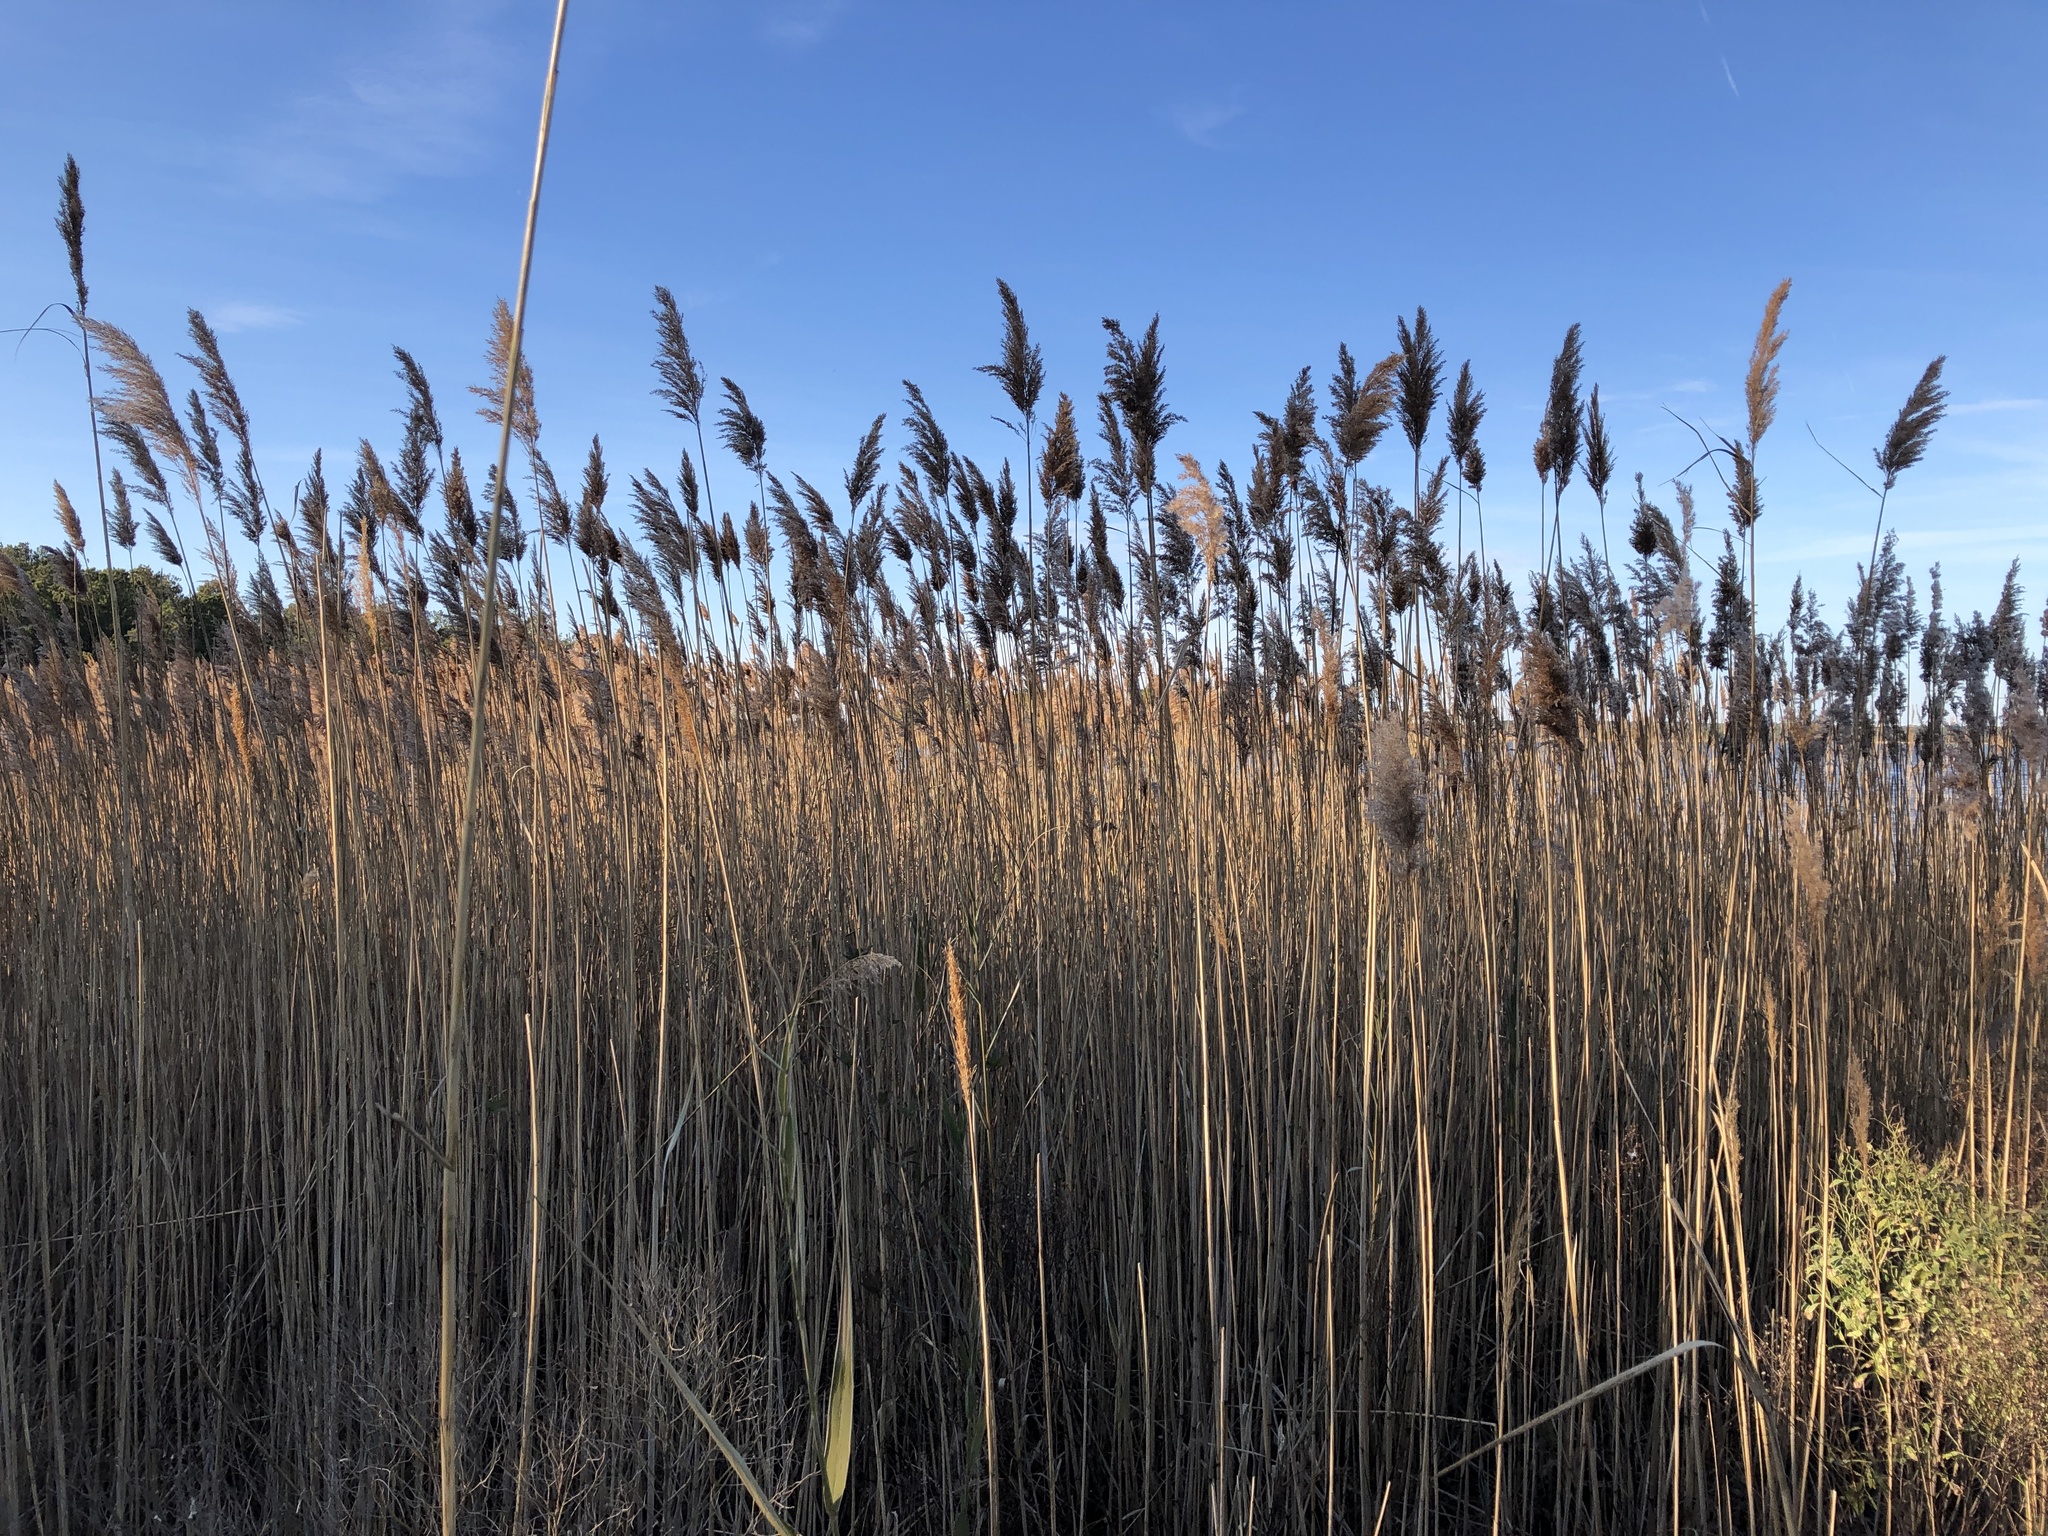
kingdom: Plantae
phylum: Tracheophyta
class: Liliopsida
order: Poales
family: Poaceae
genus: Phragmites
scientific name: Phragmites australis
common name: Common reed
